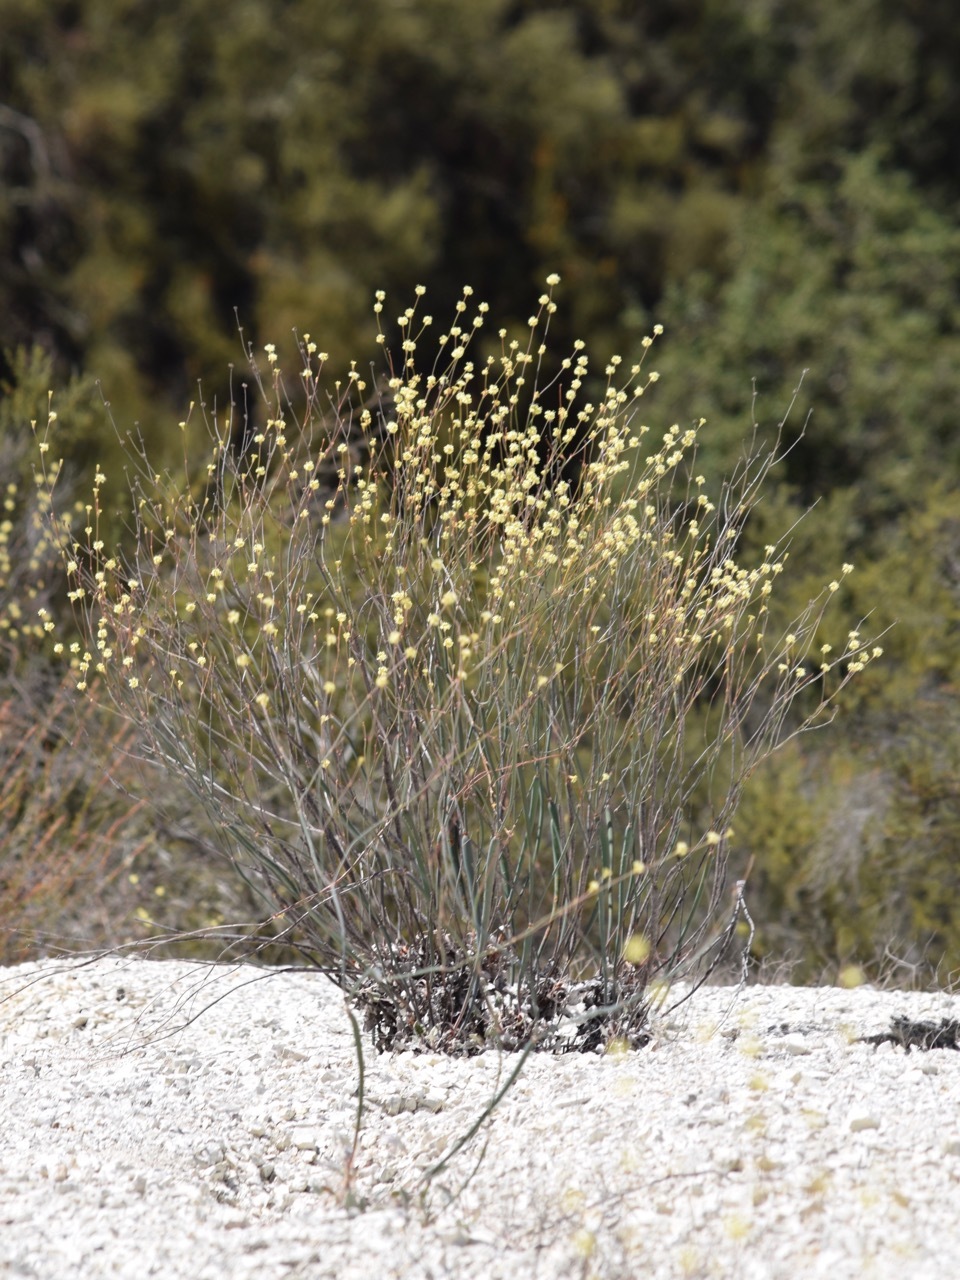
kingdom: Plantae
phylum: Tracheophyta
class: Magnoliopsida
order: Caryophyllales
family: Polygonaceae
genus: Eriogonum
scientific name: Eriogonum nudum
